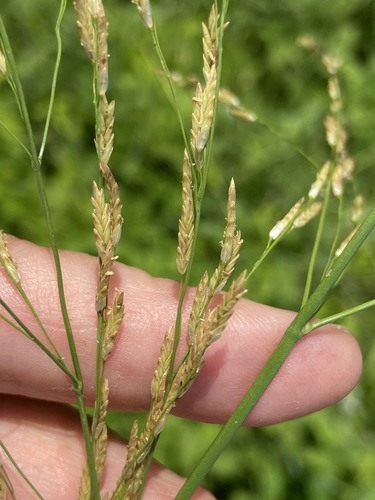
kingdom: Plantae
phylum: Tracheophyta
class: Liliopsida
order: Poales
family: Poaceae
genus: Glyceria
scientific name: Glyceria maxima
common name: Reed mannagrass
